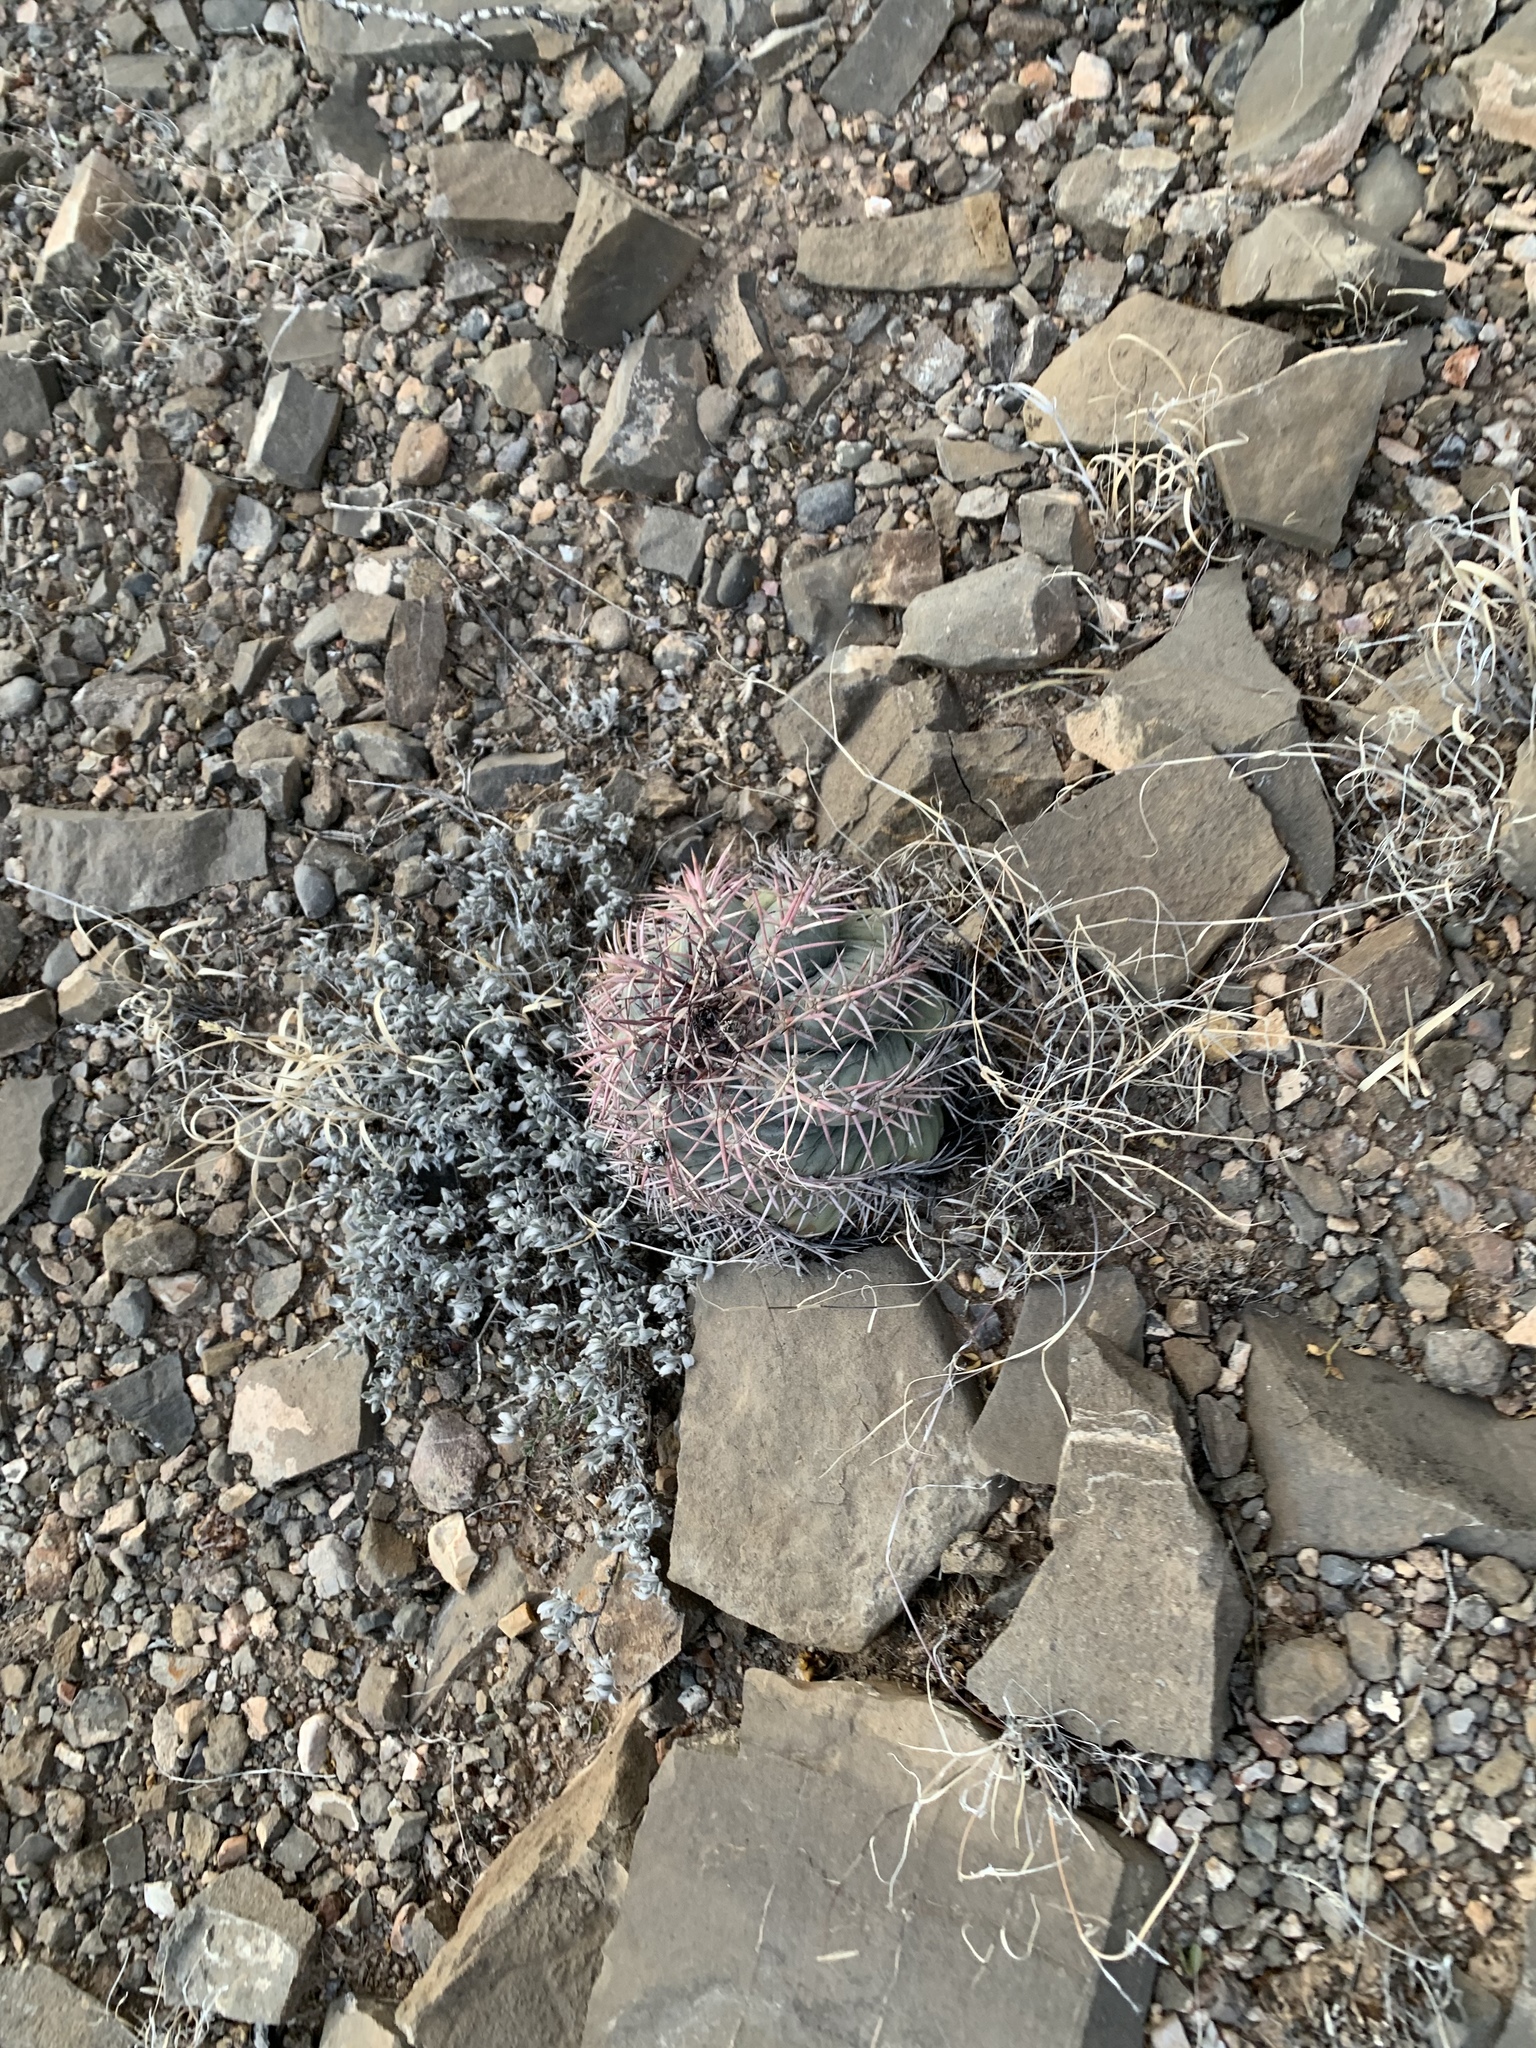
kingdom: Plantae
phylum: Tracheophyta
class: Magnoliopsida
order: Caryophyllales
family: Cactaceae
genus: Echinocactus
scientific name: Echinocactus horizonthalonius
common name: Devilshead
